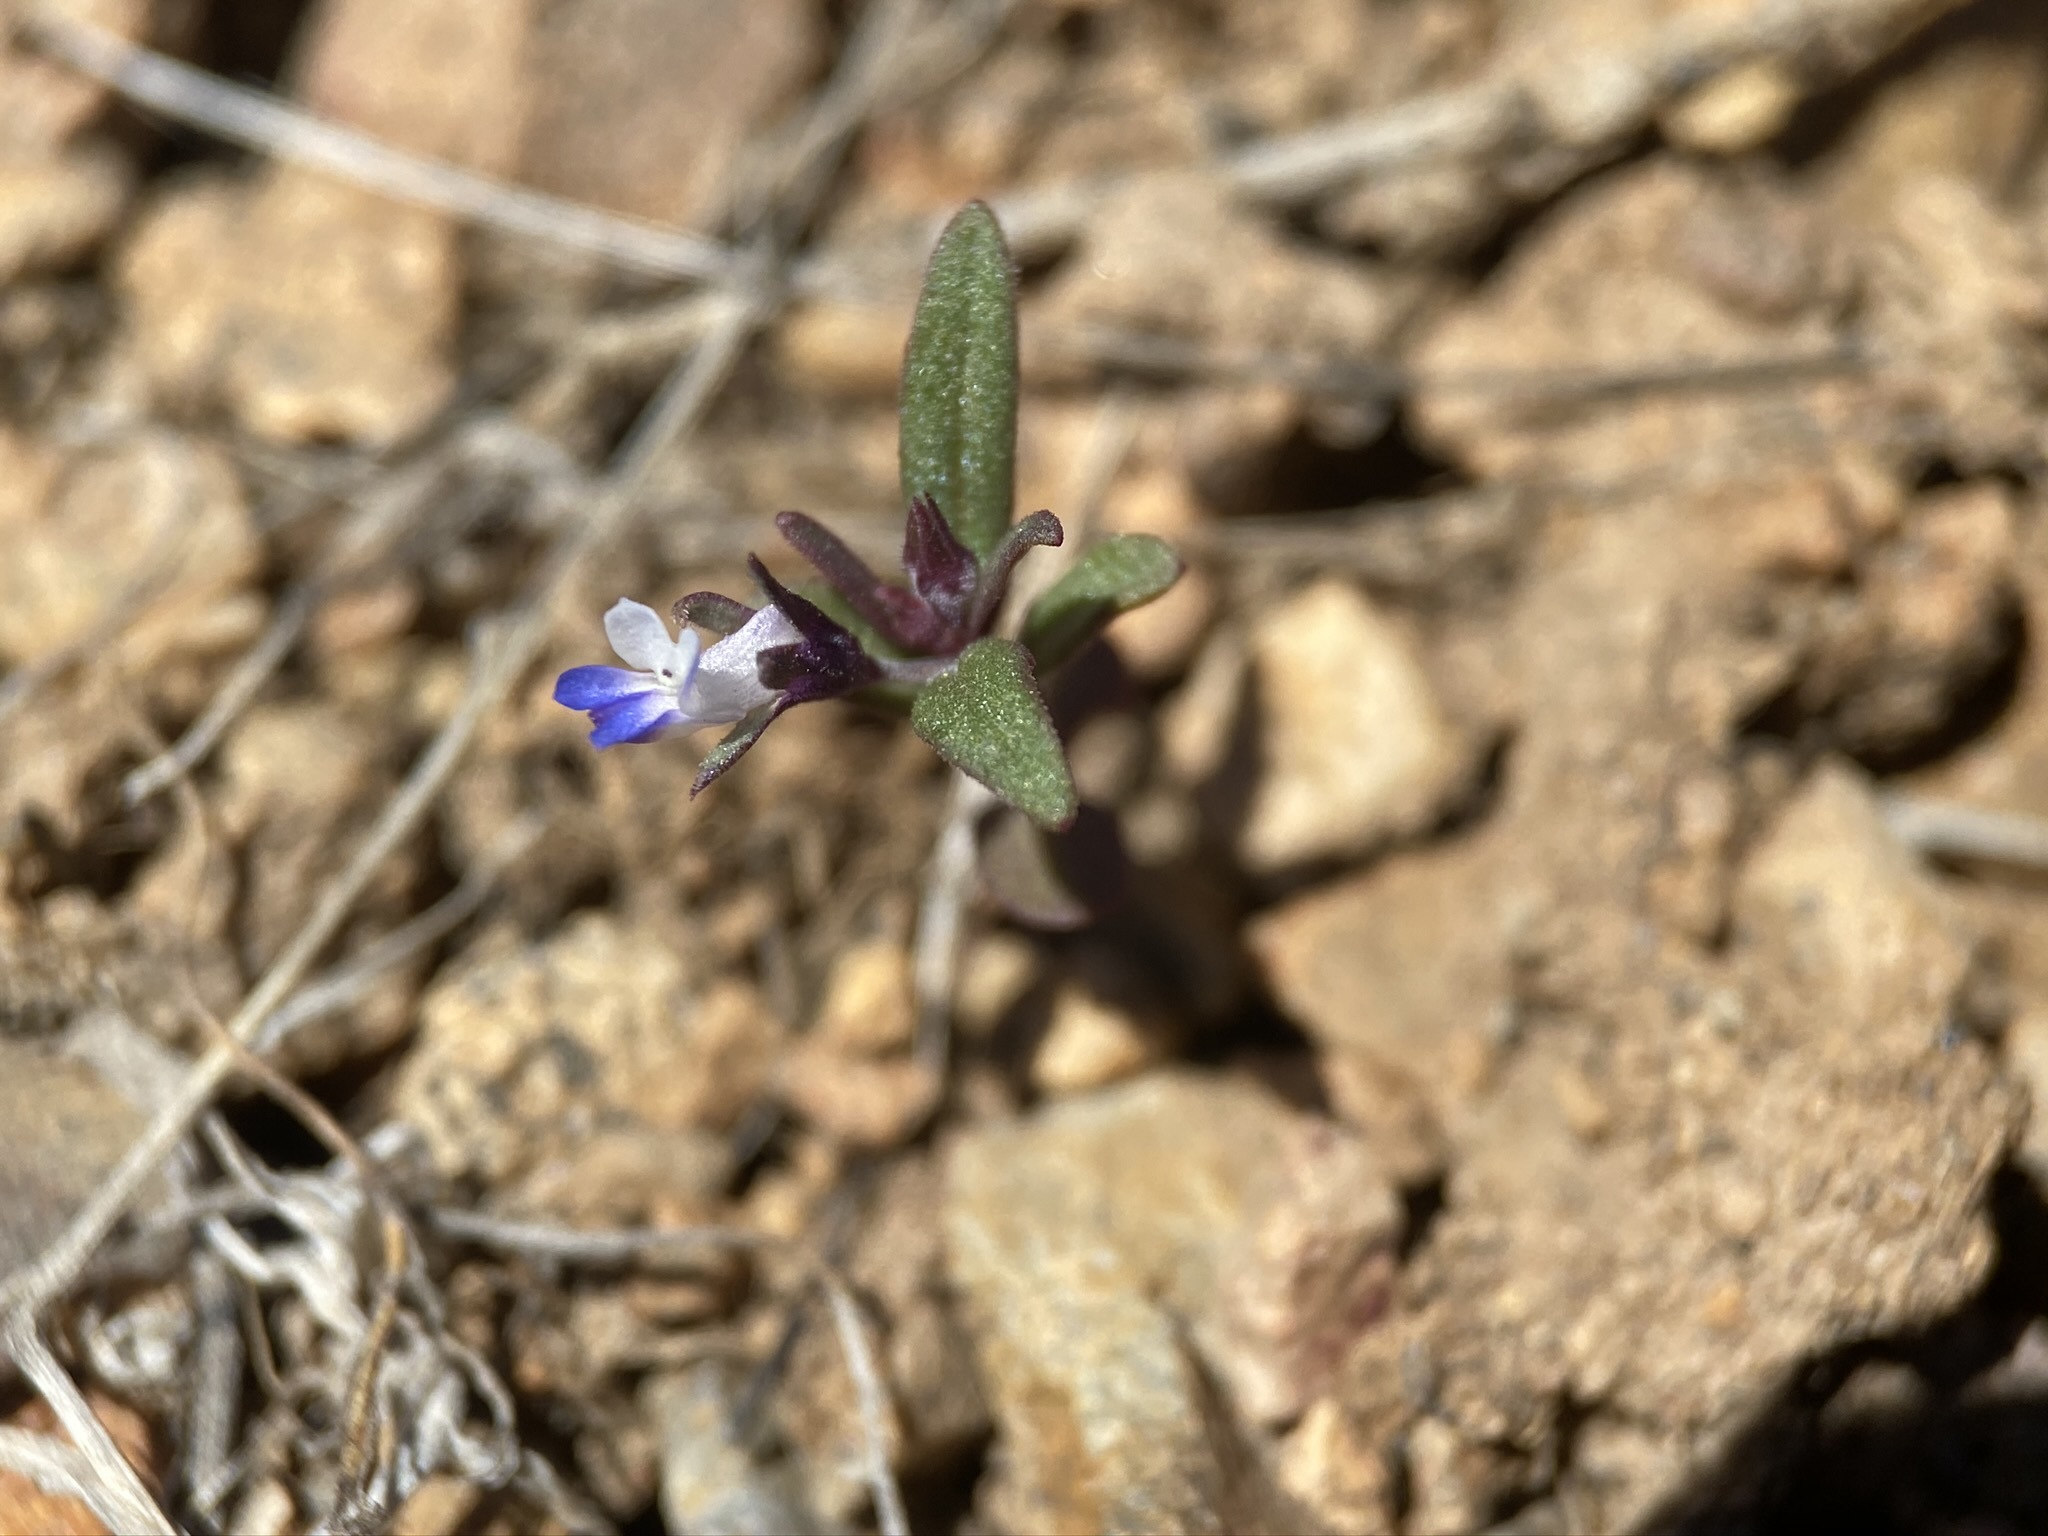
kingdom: Plantae
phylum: Tracheophyta
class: Magnoliopsida
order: Lamiales
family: Plantaginaceae
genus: Collinsia
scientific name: Collinsia parviflora
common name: Blue-lips
